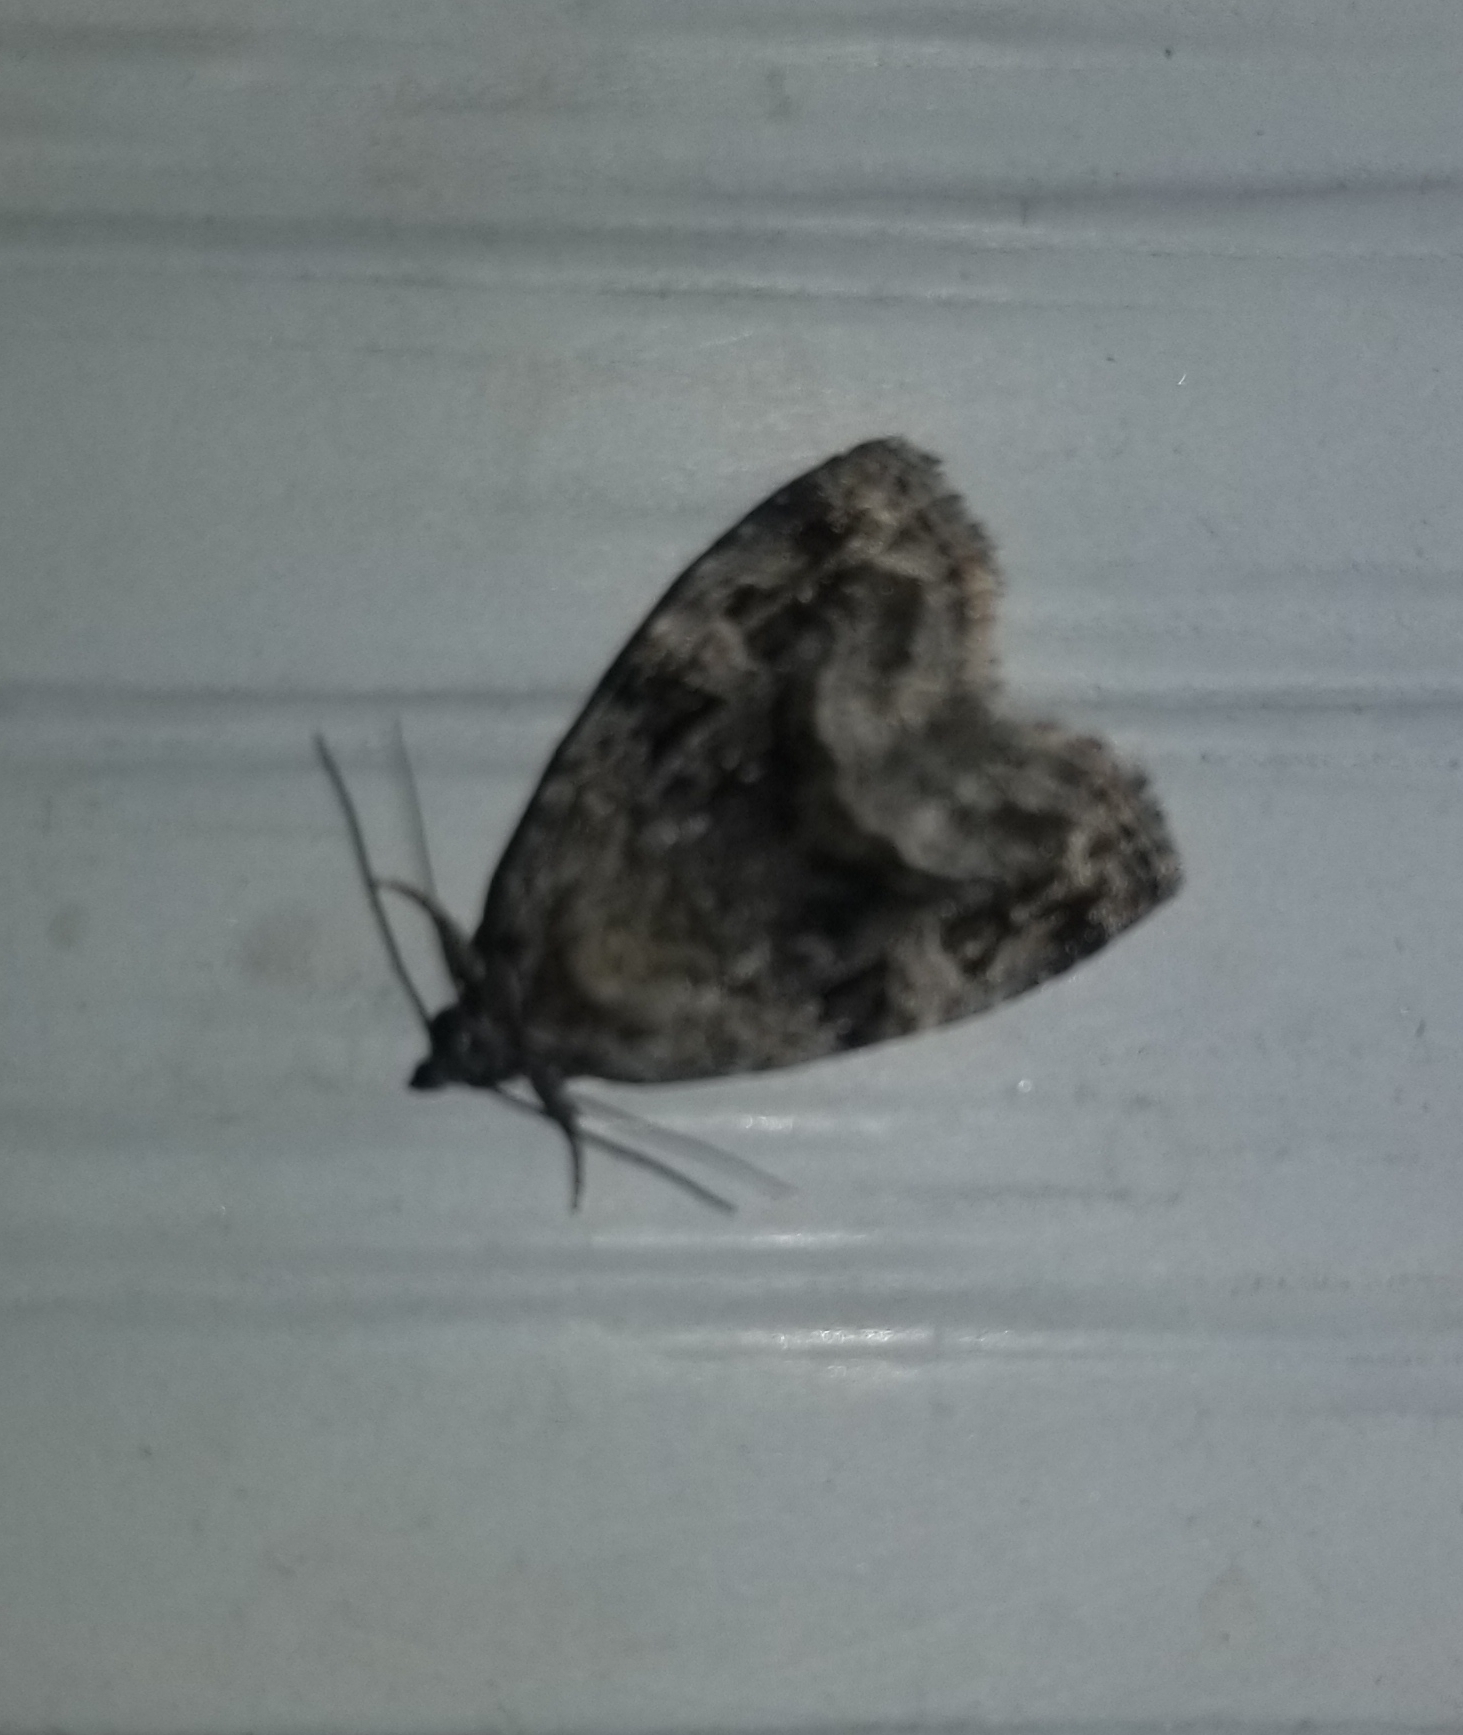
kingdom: Animalia
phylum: Arthropoda
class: Insecta
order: Lepidoptera
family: Noctuidae
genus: Protodeltote
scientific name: Protodeltote muscosula
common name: Large mossy glyph
